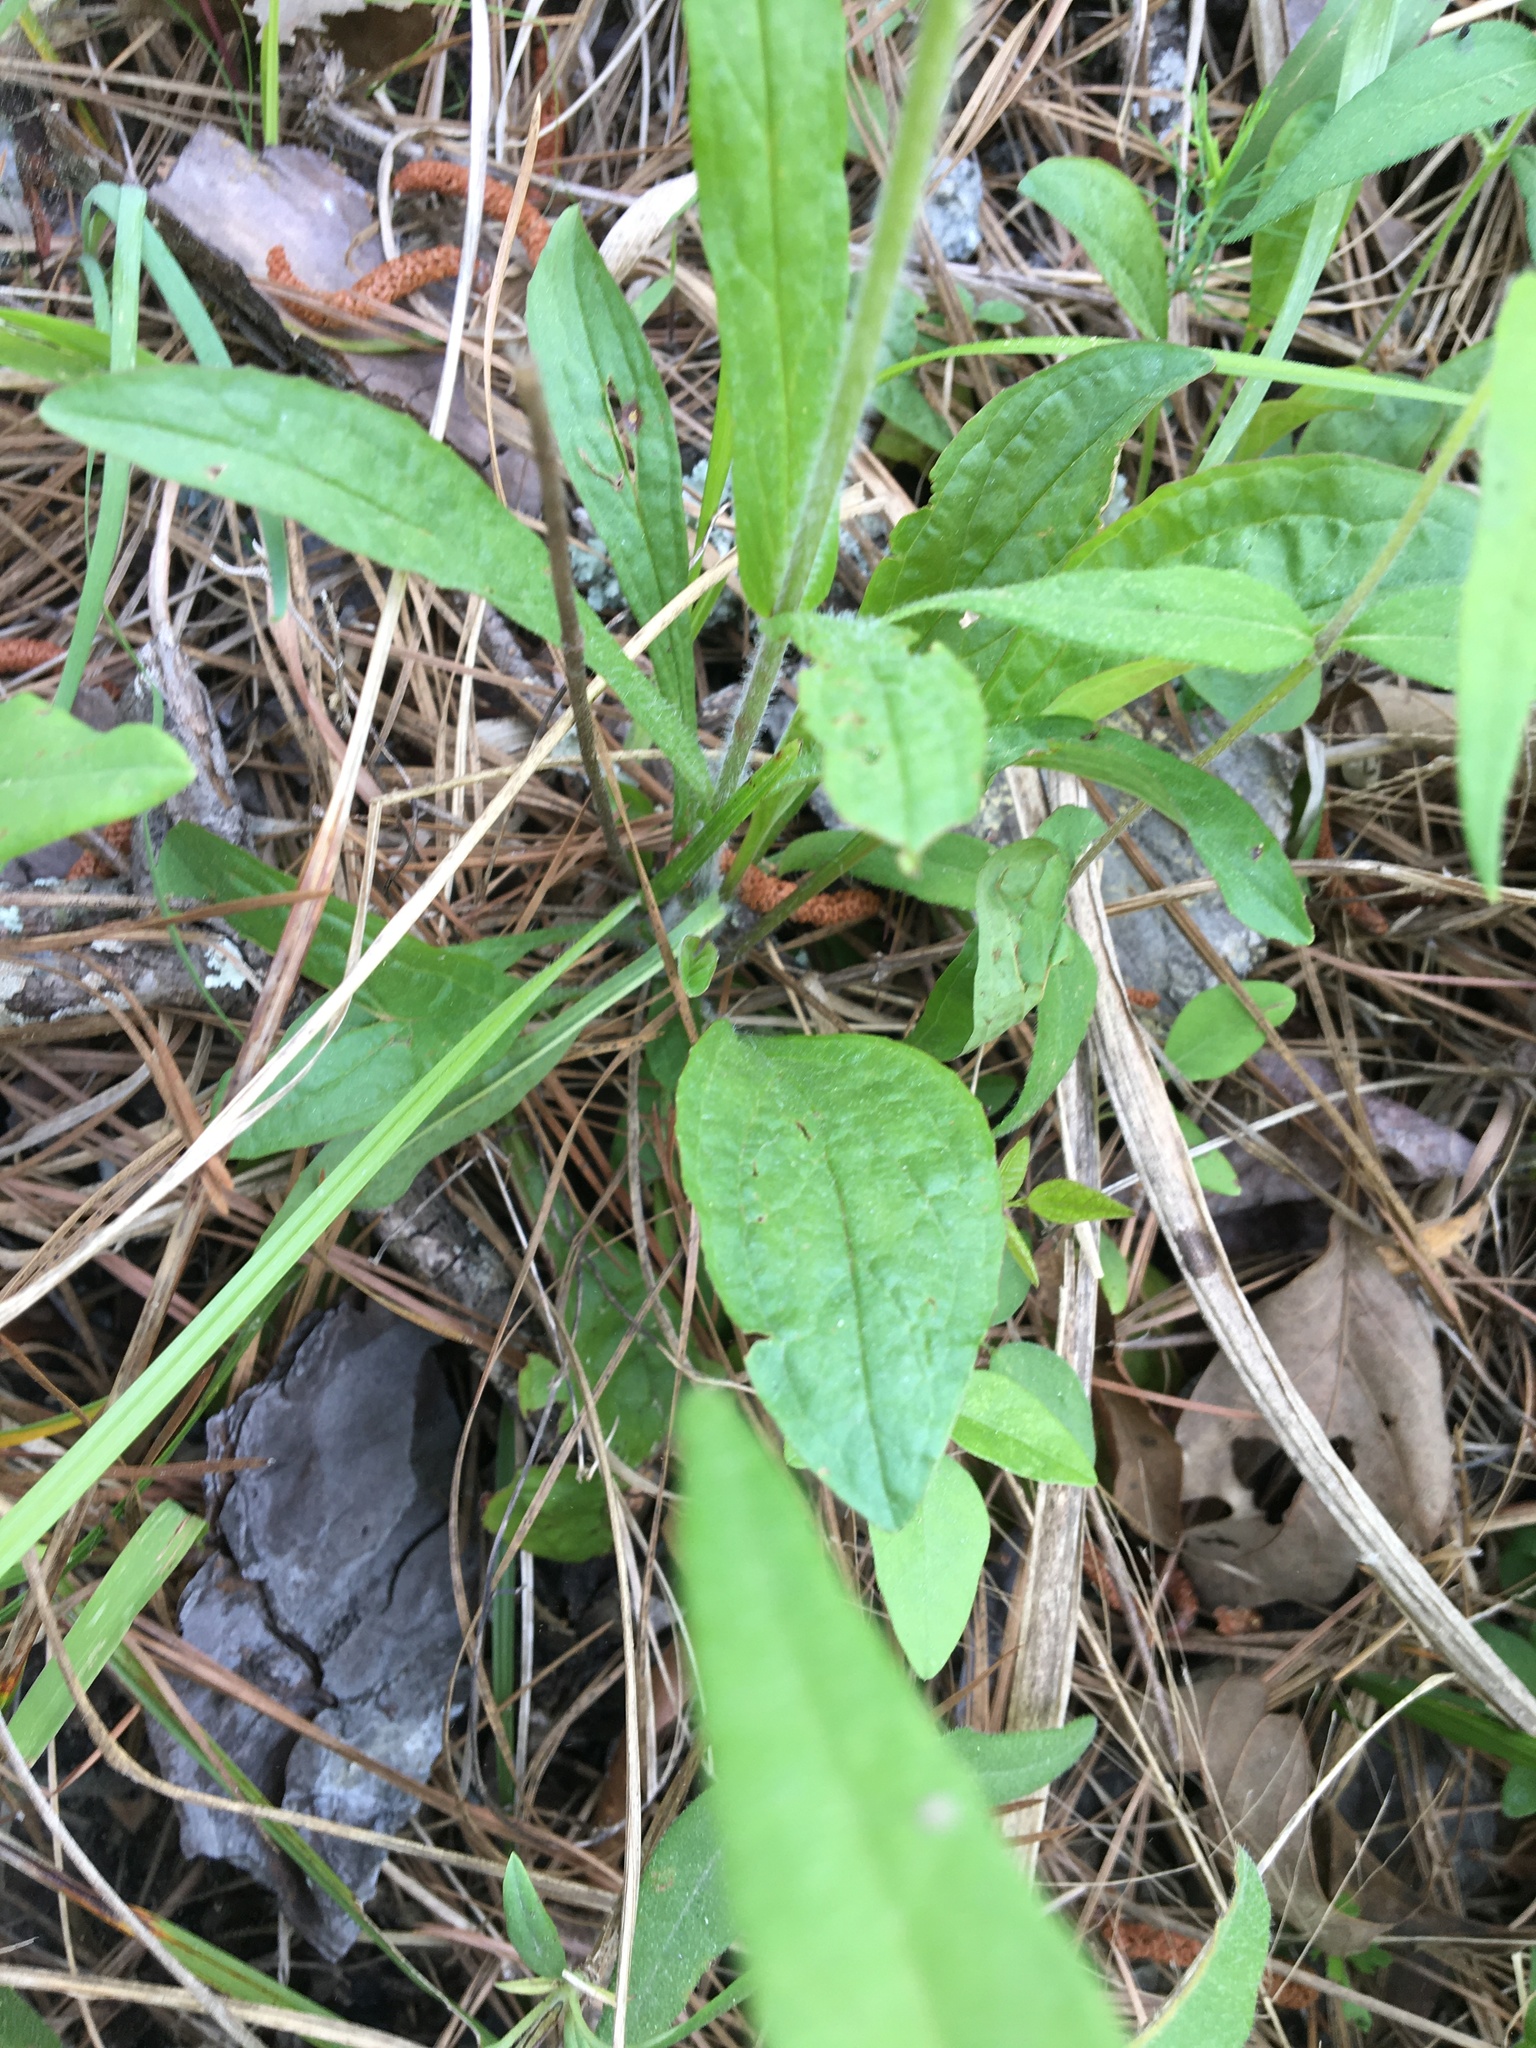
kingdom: Plantae
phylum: Tracheophyta
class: Magnoliopsida
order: Lamiales
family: Plantaginaceae
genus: Penstemon
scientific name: Penstemon australis
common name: Southeastern beardtongue
